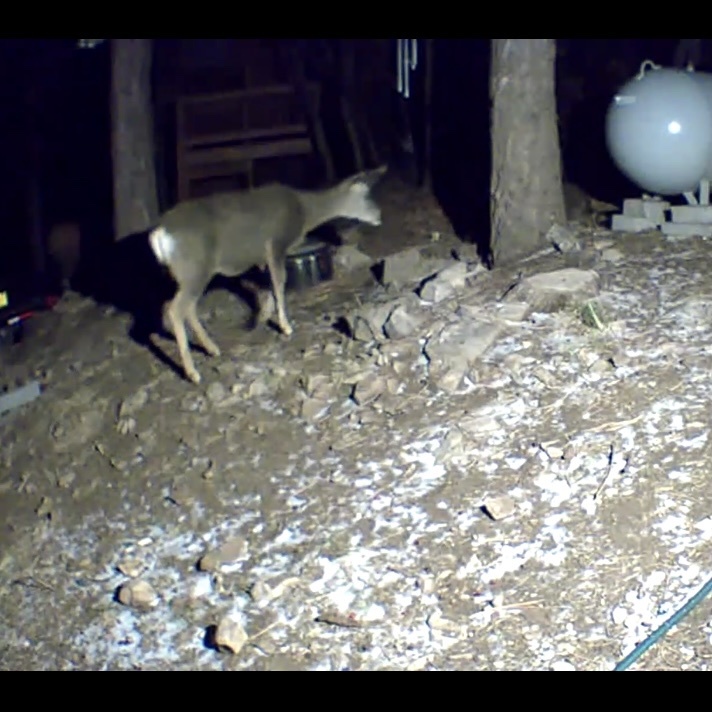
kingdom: Animalia
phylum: Chordata
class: Mammalia
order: Artiodactyla
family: Cervidae
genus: Odocoileus
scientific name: Odocoileus hemionus
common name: Mule deer
